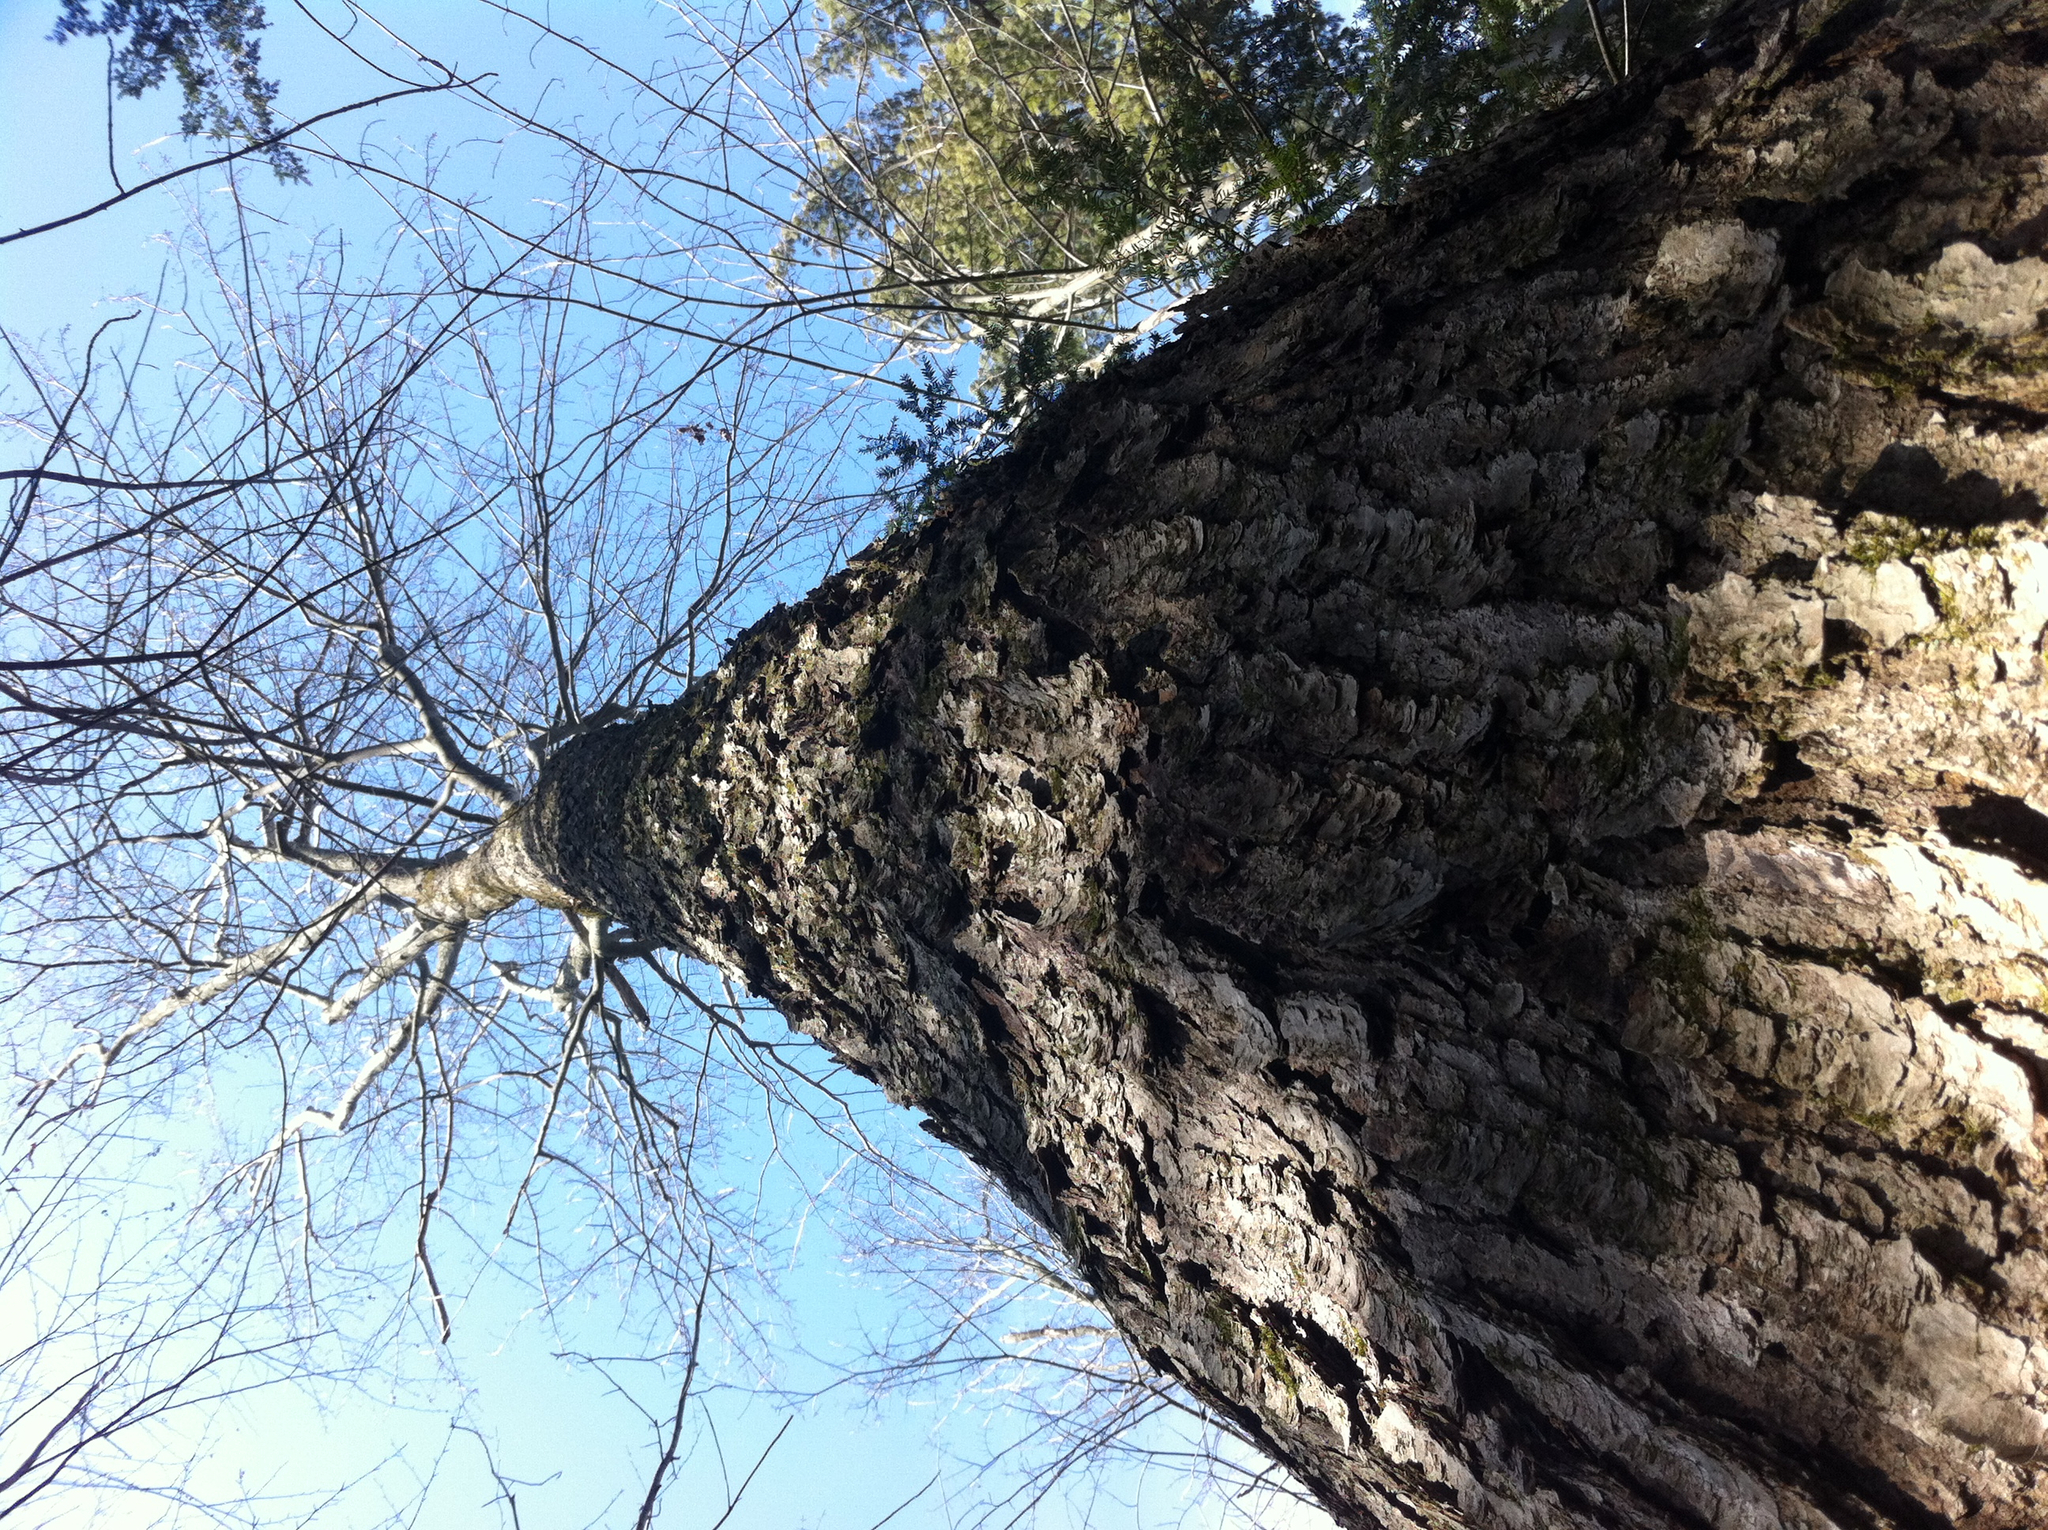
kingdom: Plantae
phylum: Tracheophyta
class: Magnoliopsida
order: Sapindales
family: Sapindaceae
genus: Acer
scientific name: Acer rubrum
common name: Red maple
